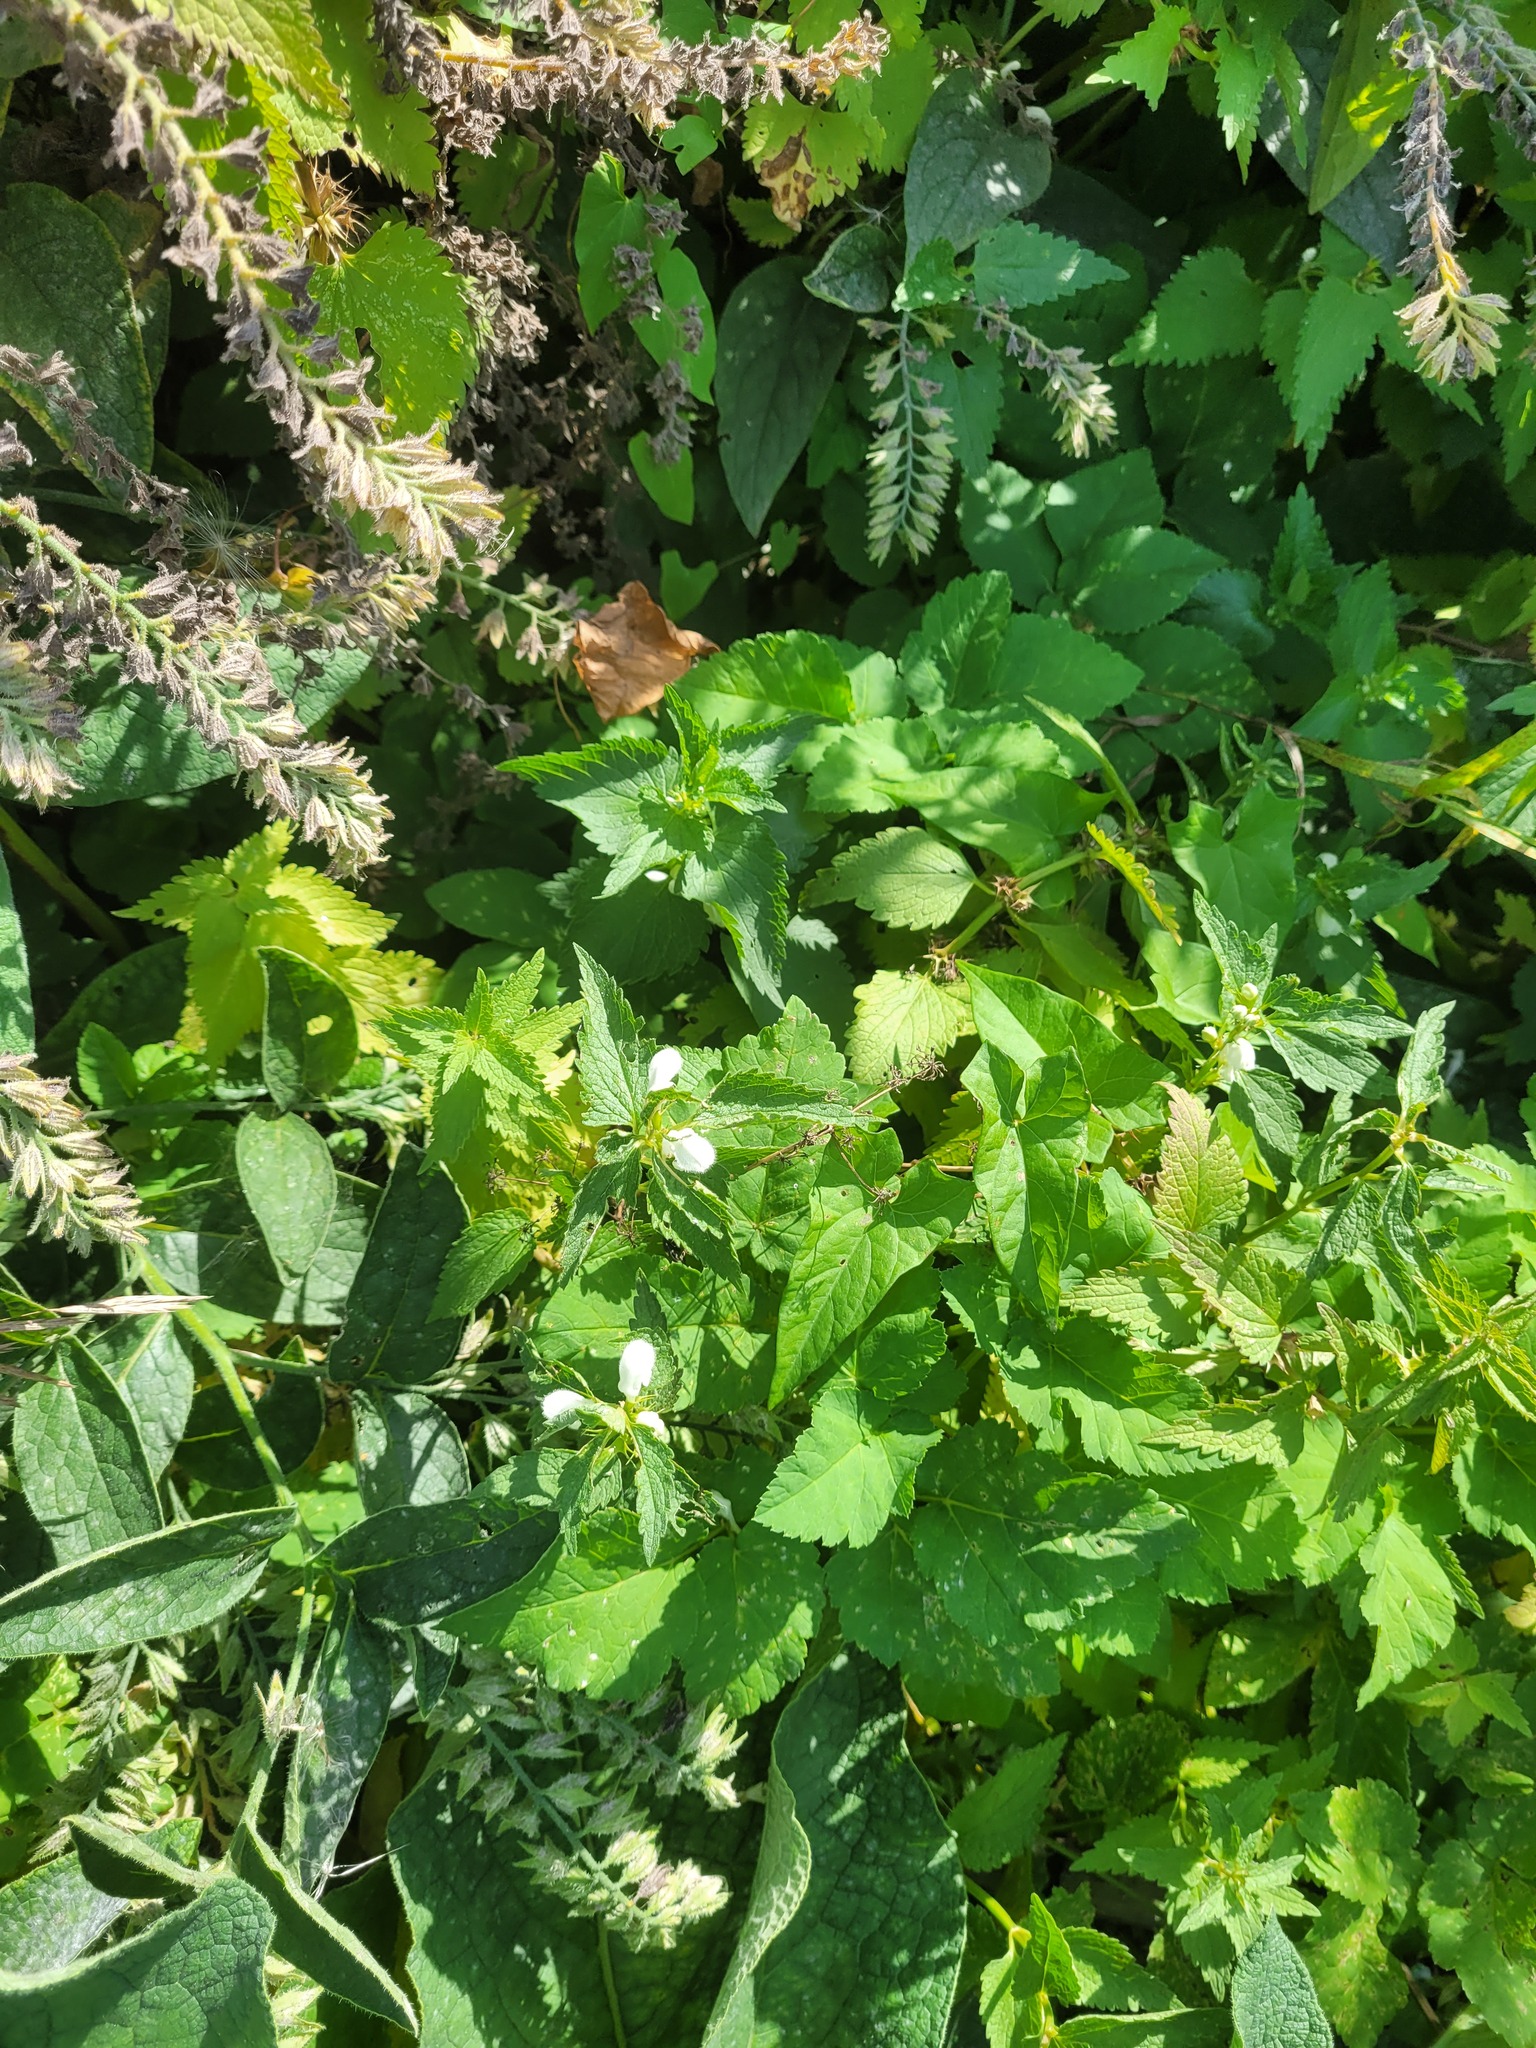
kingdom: Plantae
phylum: Tracheophyta
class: Magnoliopsida
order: Lamiales
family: Lamiaceae
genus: Lamium
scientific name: Lamium album
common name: White dead-nettle
